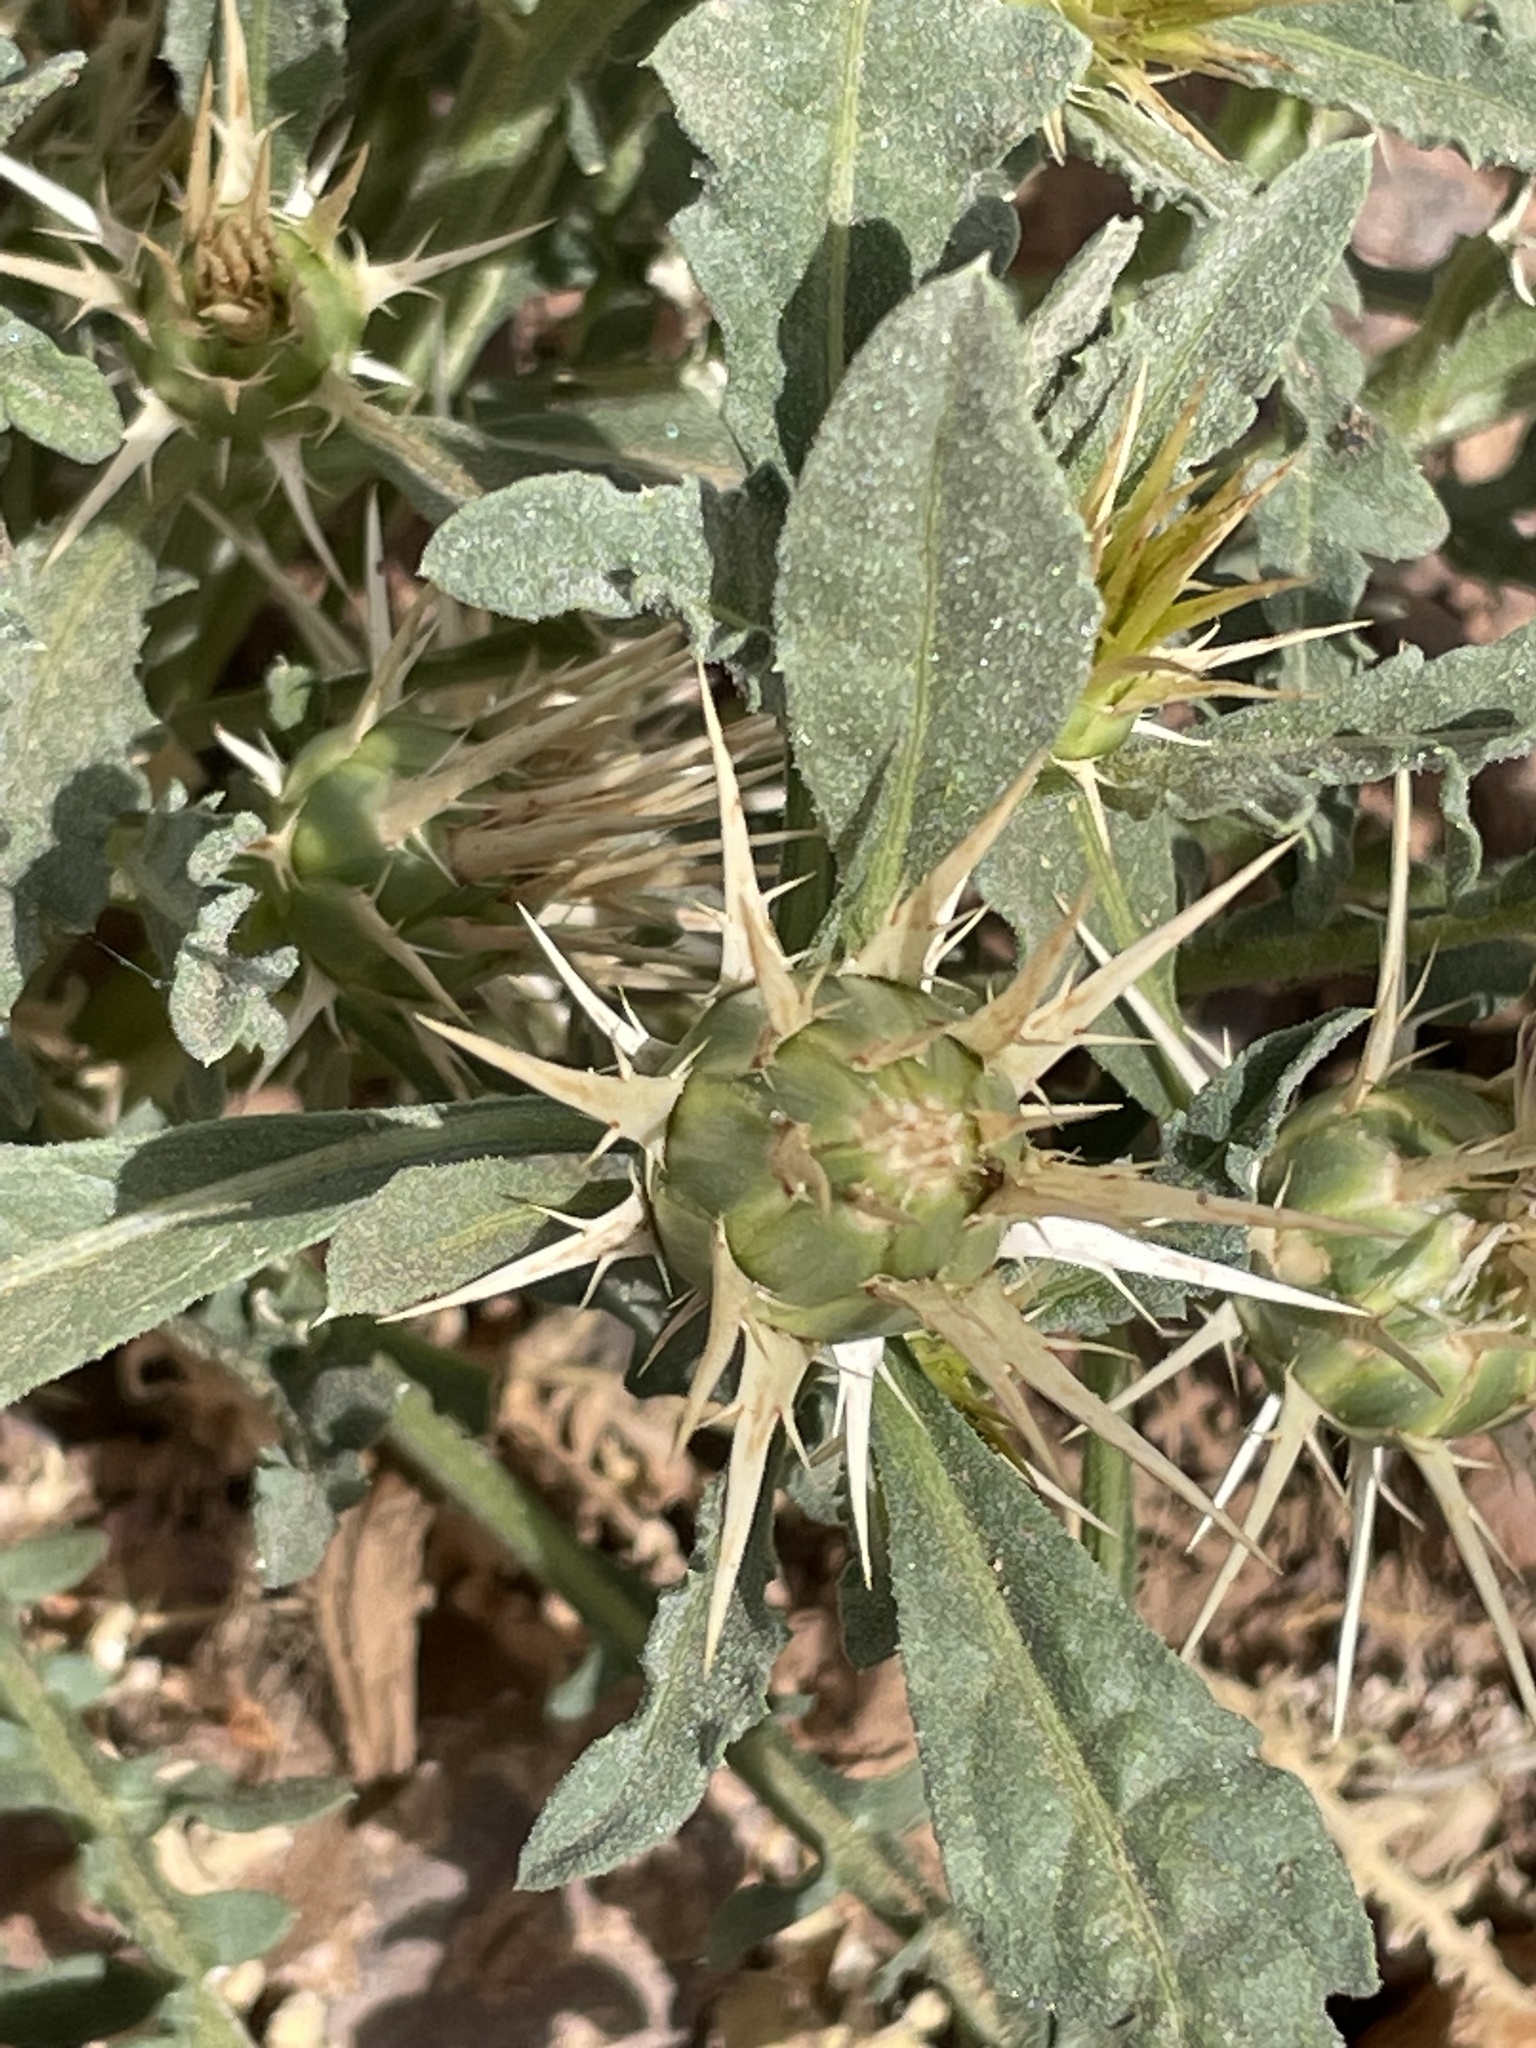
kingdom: Plantae
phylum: Tracheophyta
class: Magnoliopsida
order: Asterales
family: Asteraceae
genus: Centaurea
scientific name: Centaurea pungens
